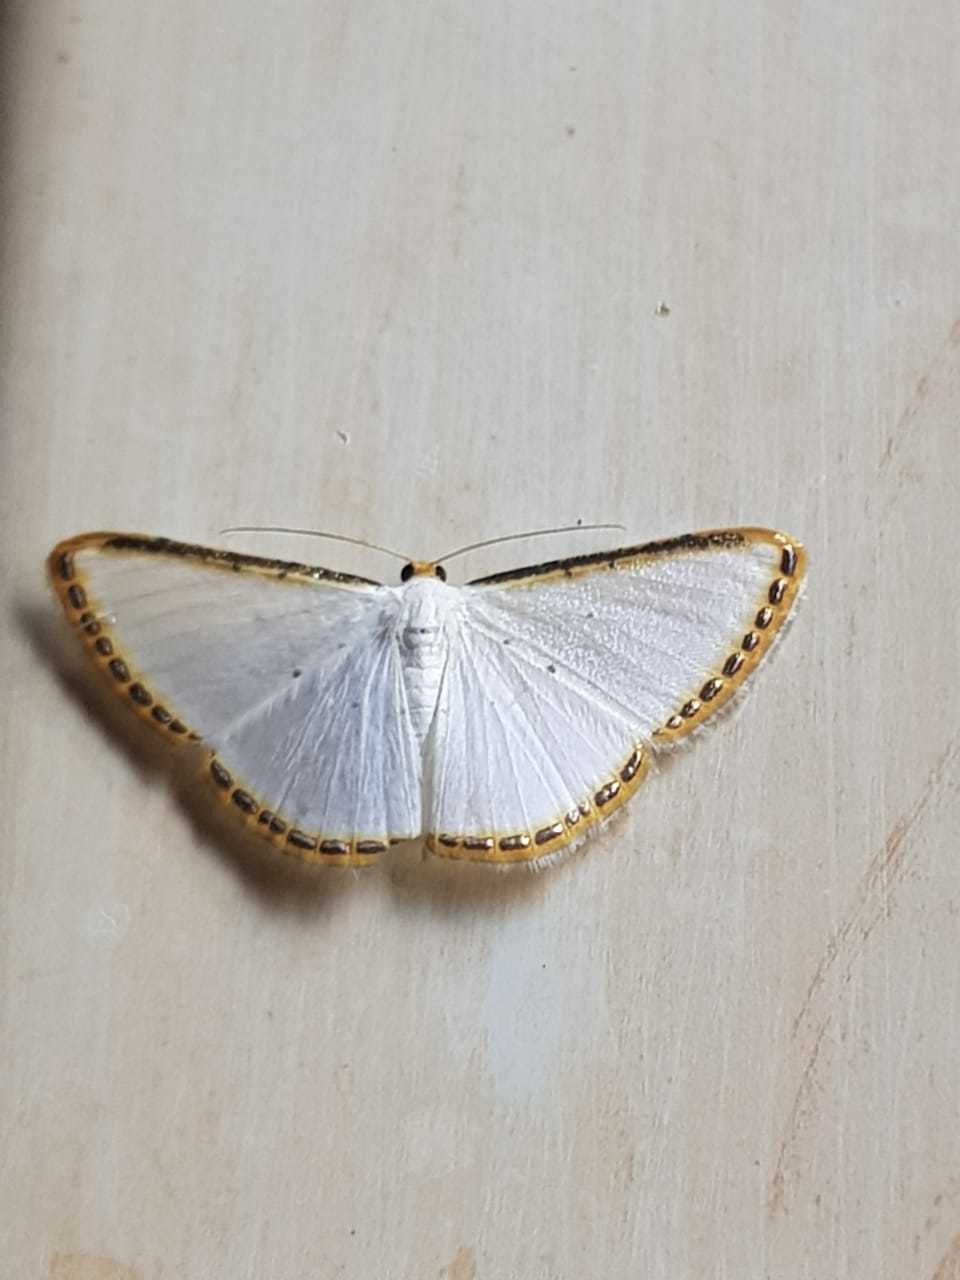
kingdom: Animalia
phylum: Arthropoda
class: Insecta
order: Lepidoptera
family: Geometridae
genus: Leuciris
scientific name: Leuciris fimbriaria
